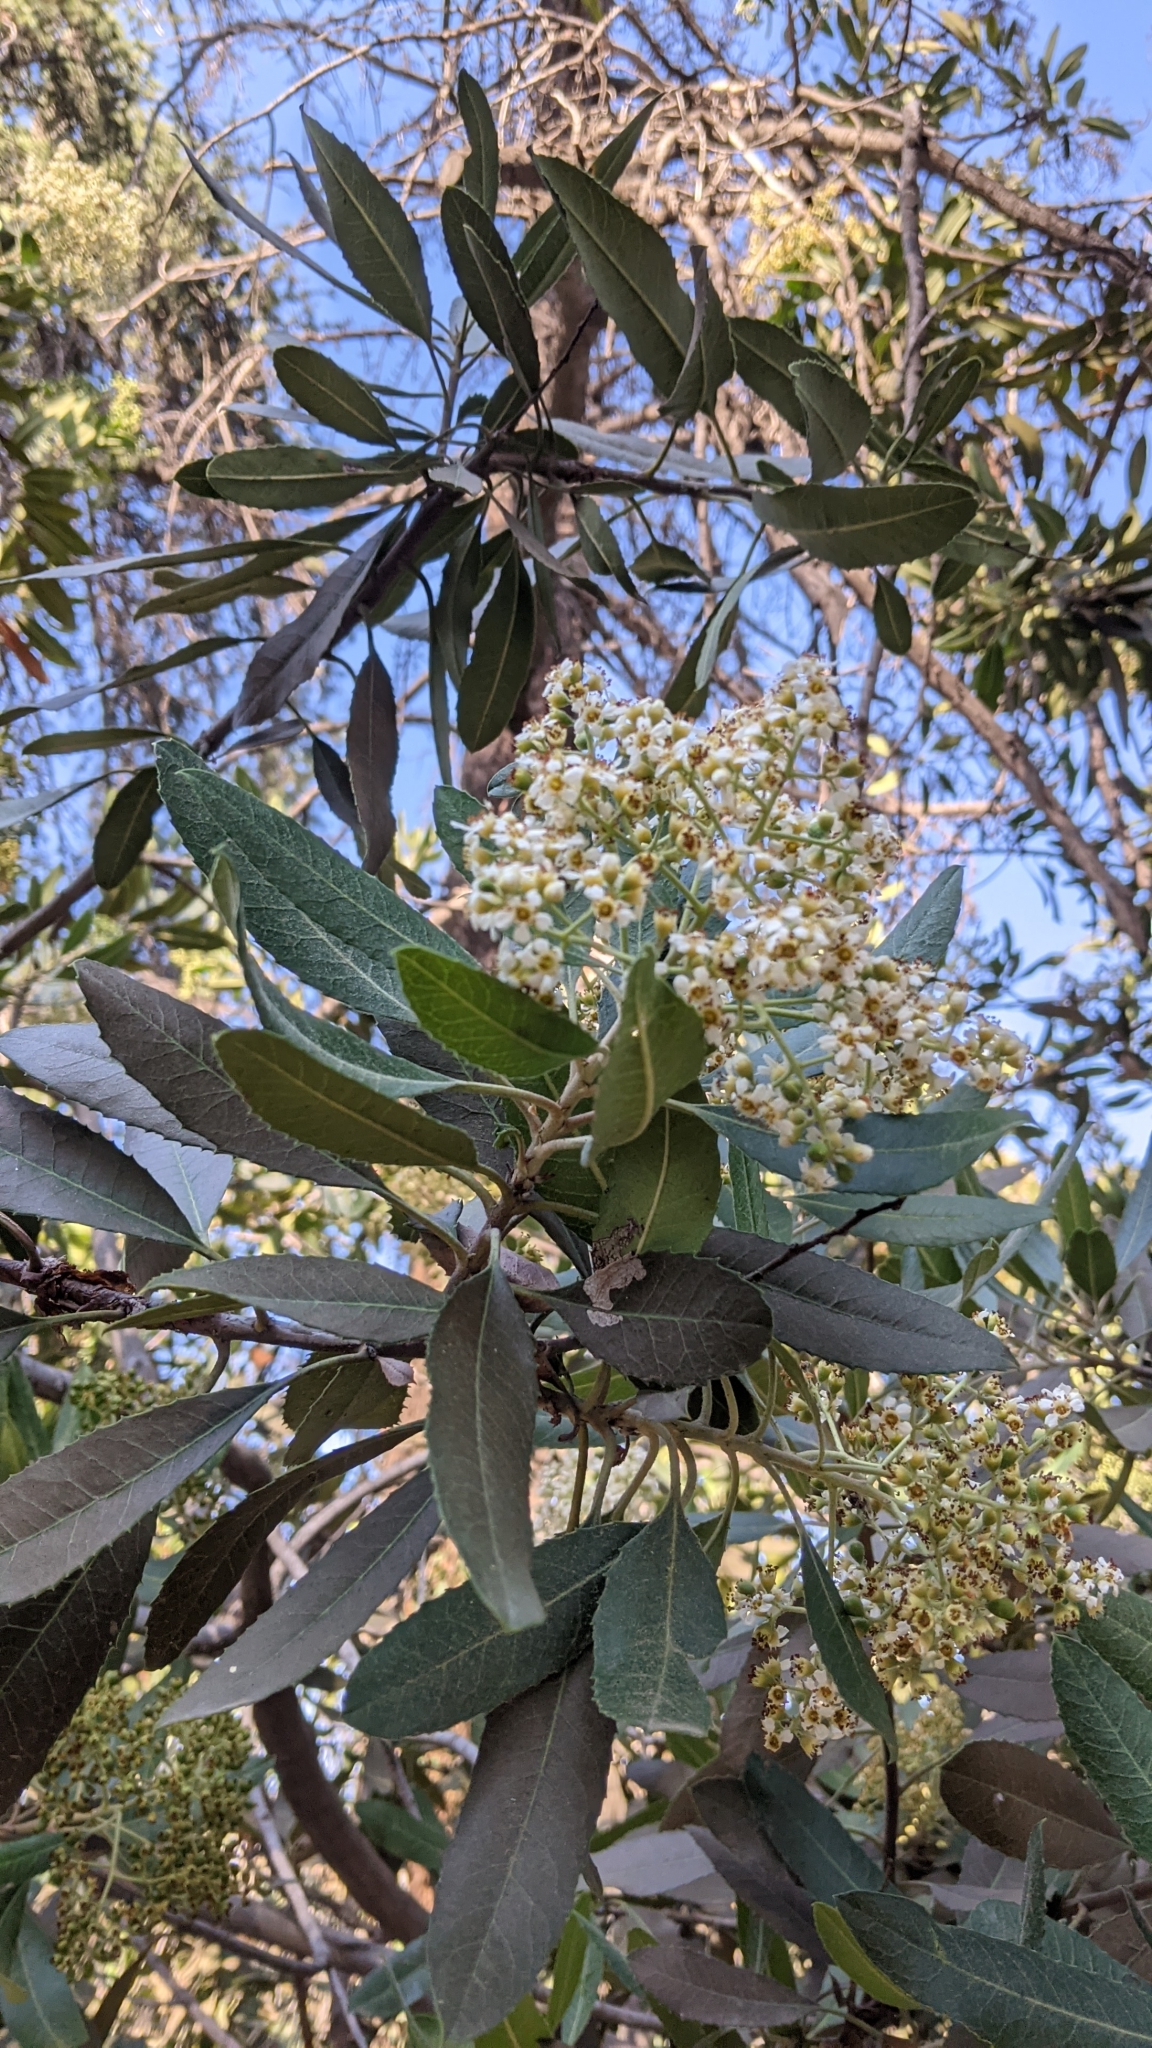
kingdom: Plantae
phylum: Tracheophyta
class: Magnoliopsida
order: Rosales
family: Rosaceae
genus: Heteromeles
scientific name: Heteromeles arbutifolia
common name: California-holly
